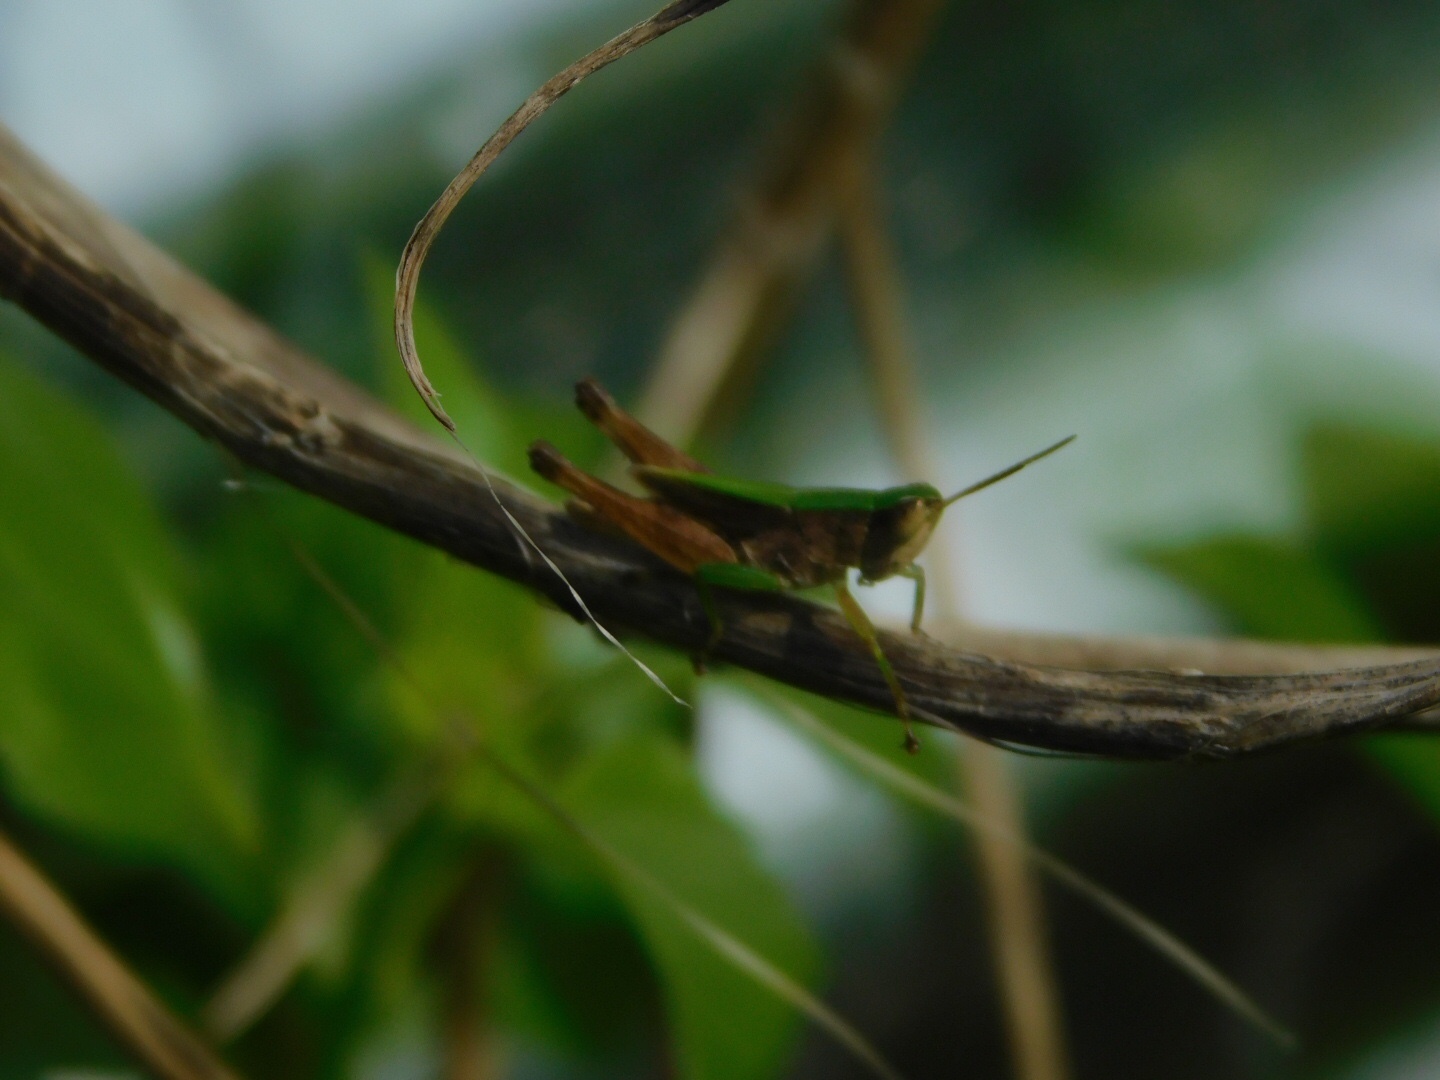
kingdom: Animalia
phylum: Arthropoda
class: Insecta
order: Orthoptera
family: Acrididae
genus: Dichromorpha
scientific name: Dichromorpha viridis
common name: Short-winged green grasshopper
